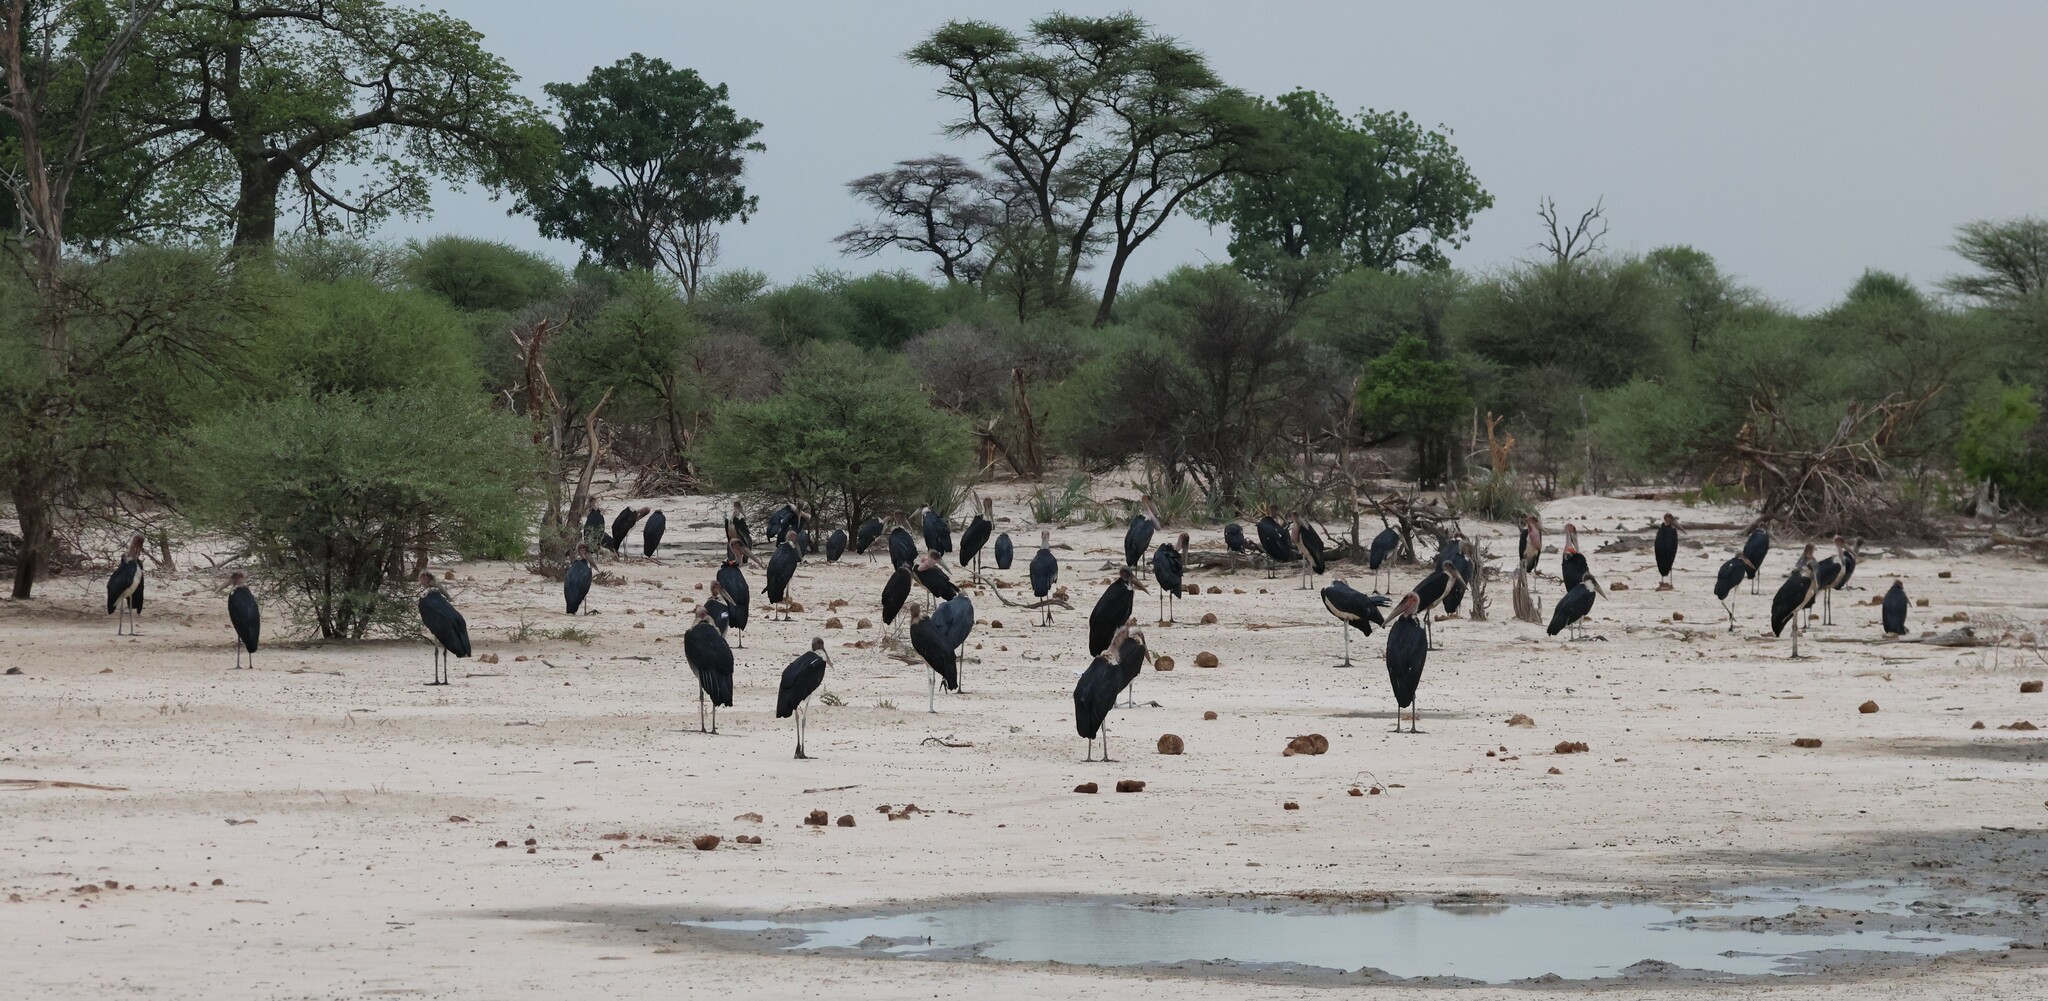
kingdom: Animalia
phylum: Chordata
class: Aves
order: Ciconiiformes
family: Ciconiidae
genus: Leptoptilos
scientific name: Leptoptilos crumenifer
